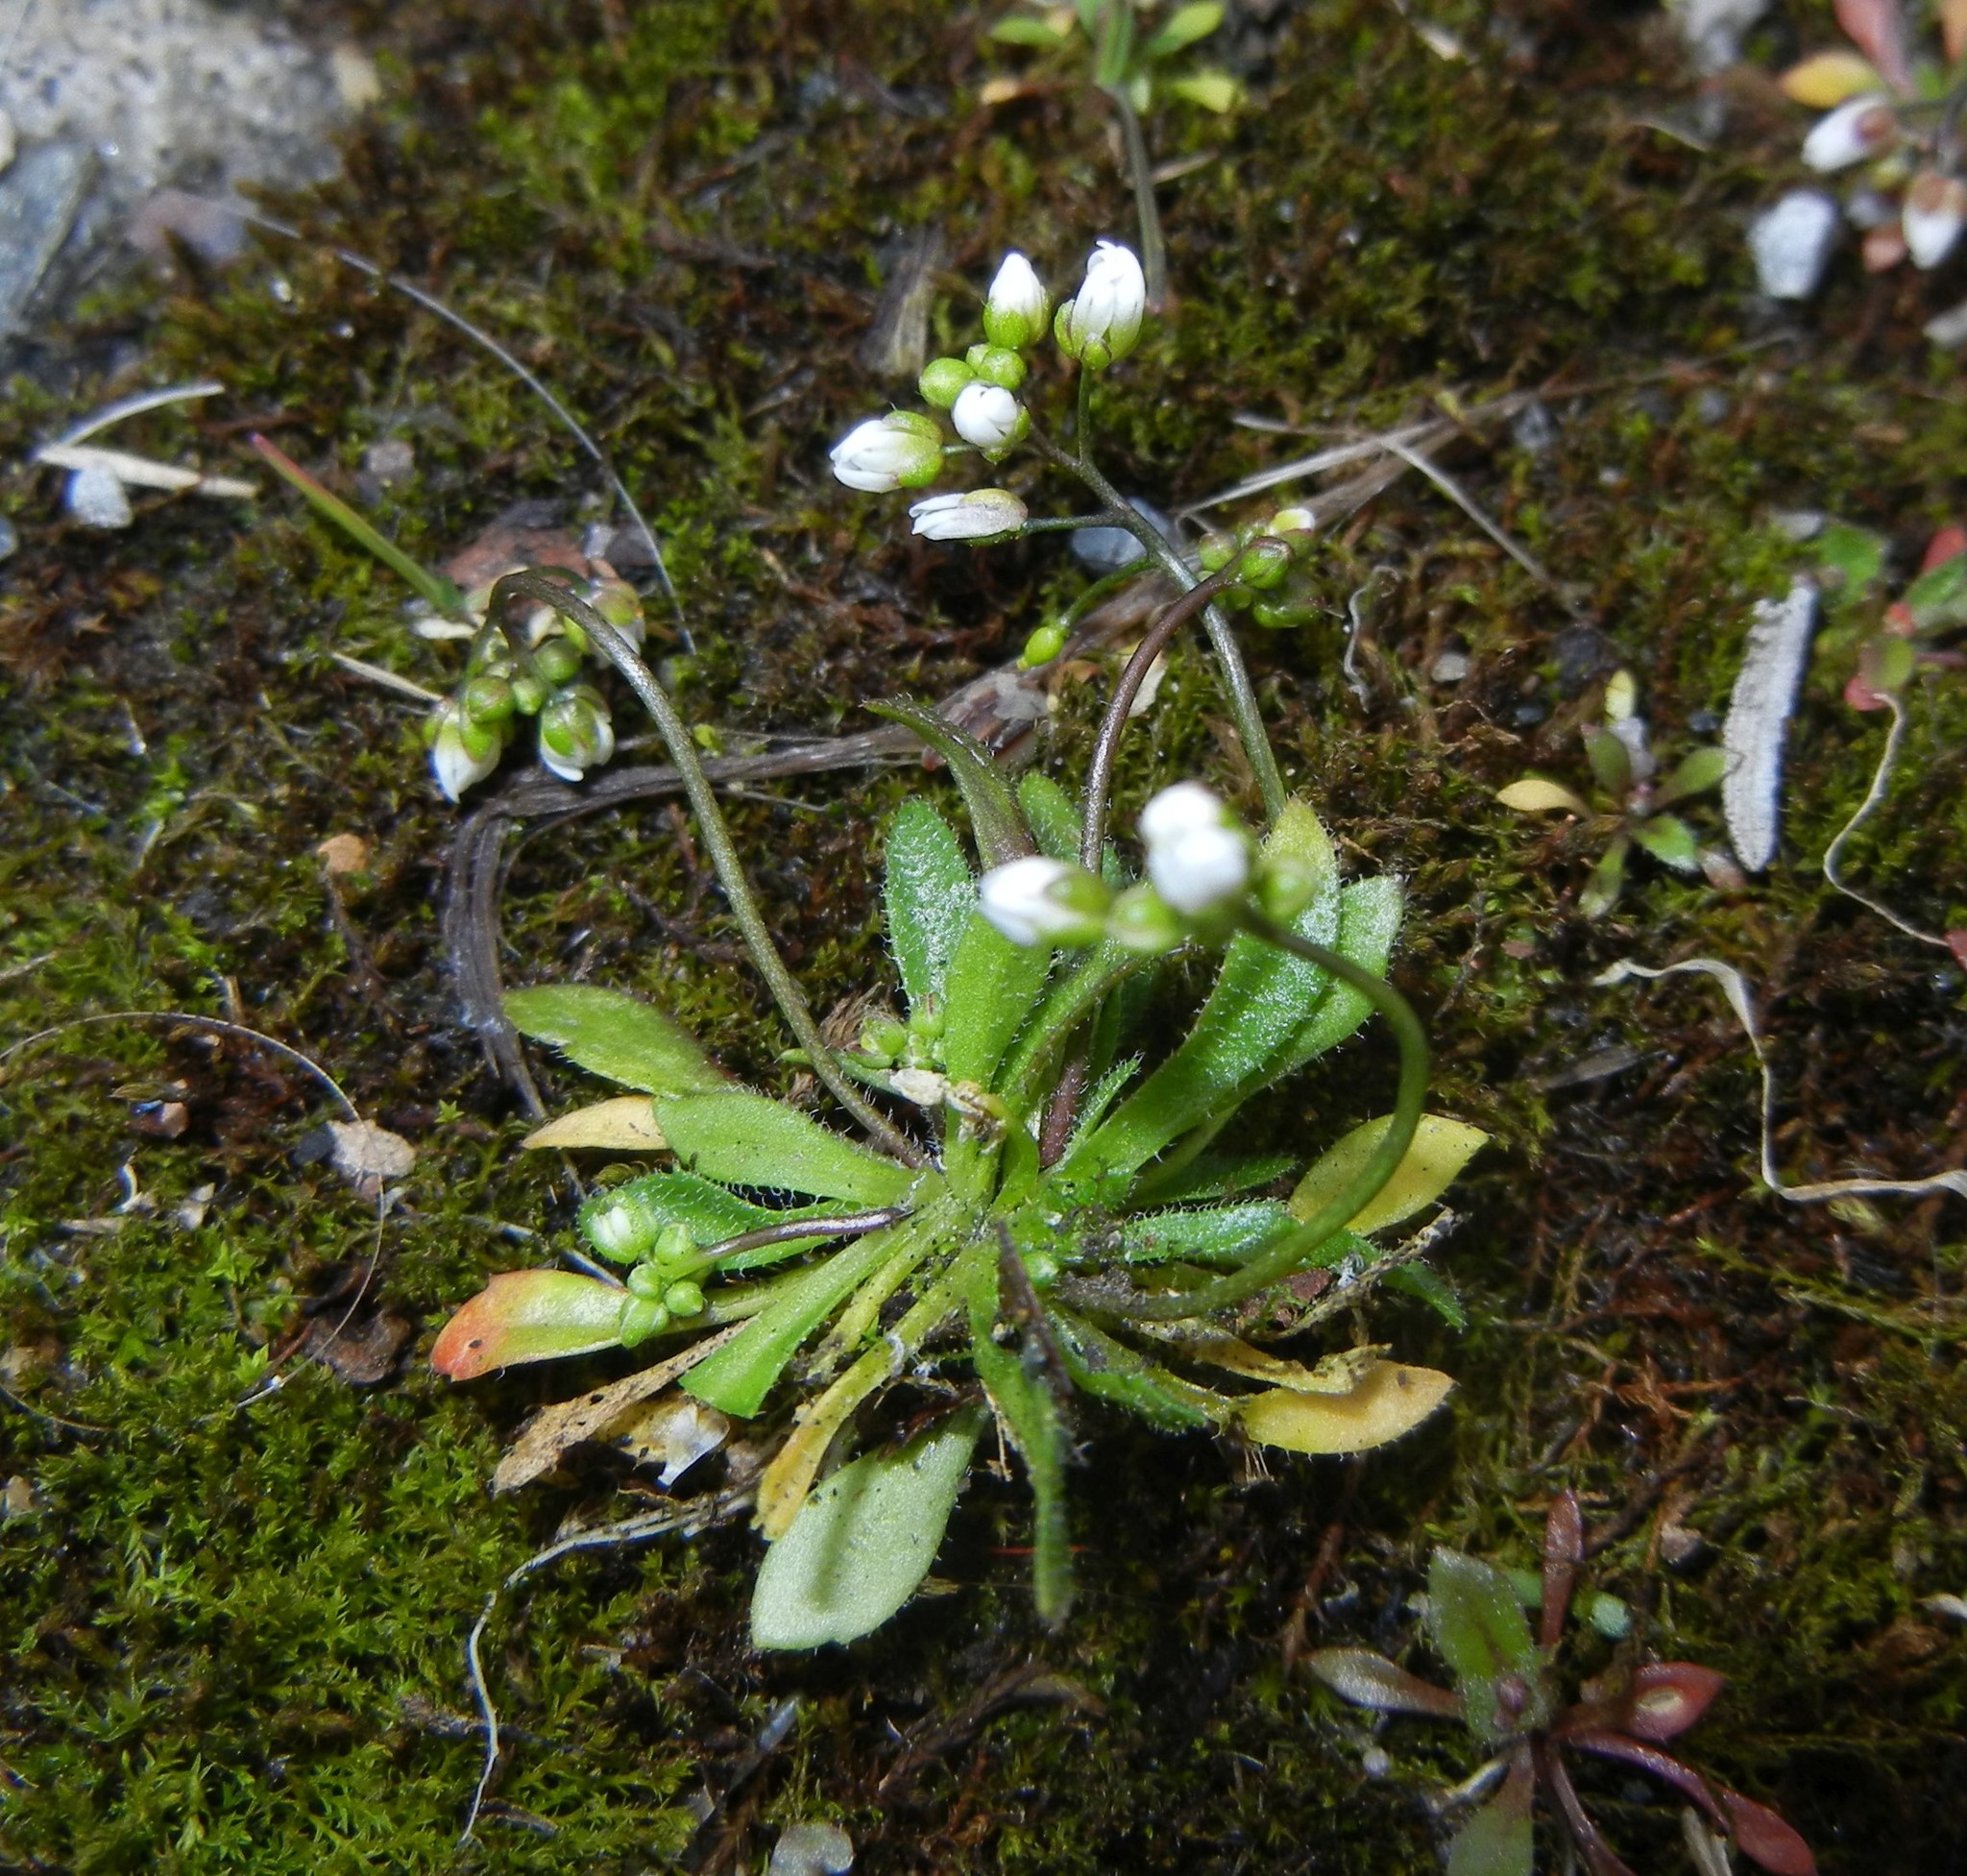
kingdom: Plantae
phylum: Tracheophyta
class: Magnoliopsida
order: Brassicales
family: Brassicaceae
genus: Draba
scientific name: Draba verna
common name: Spring draba
